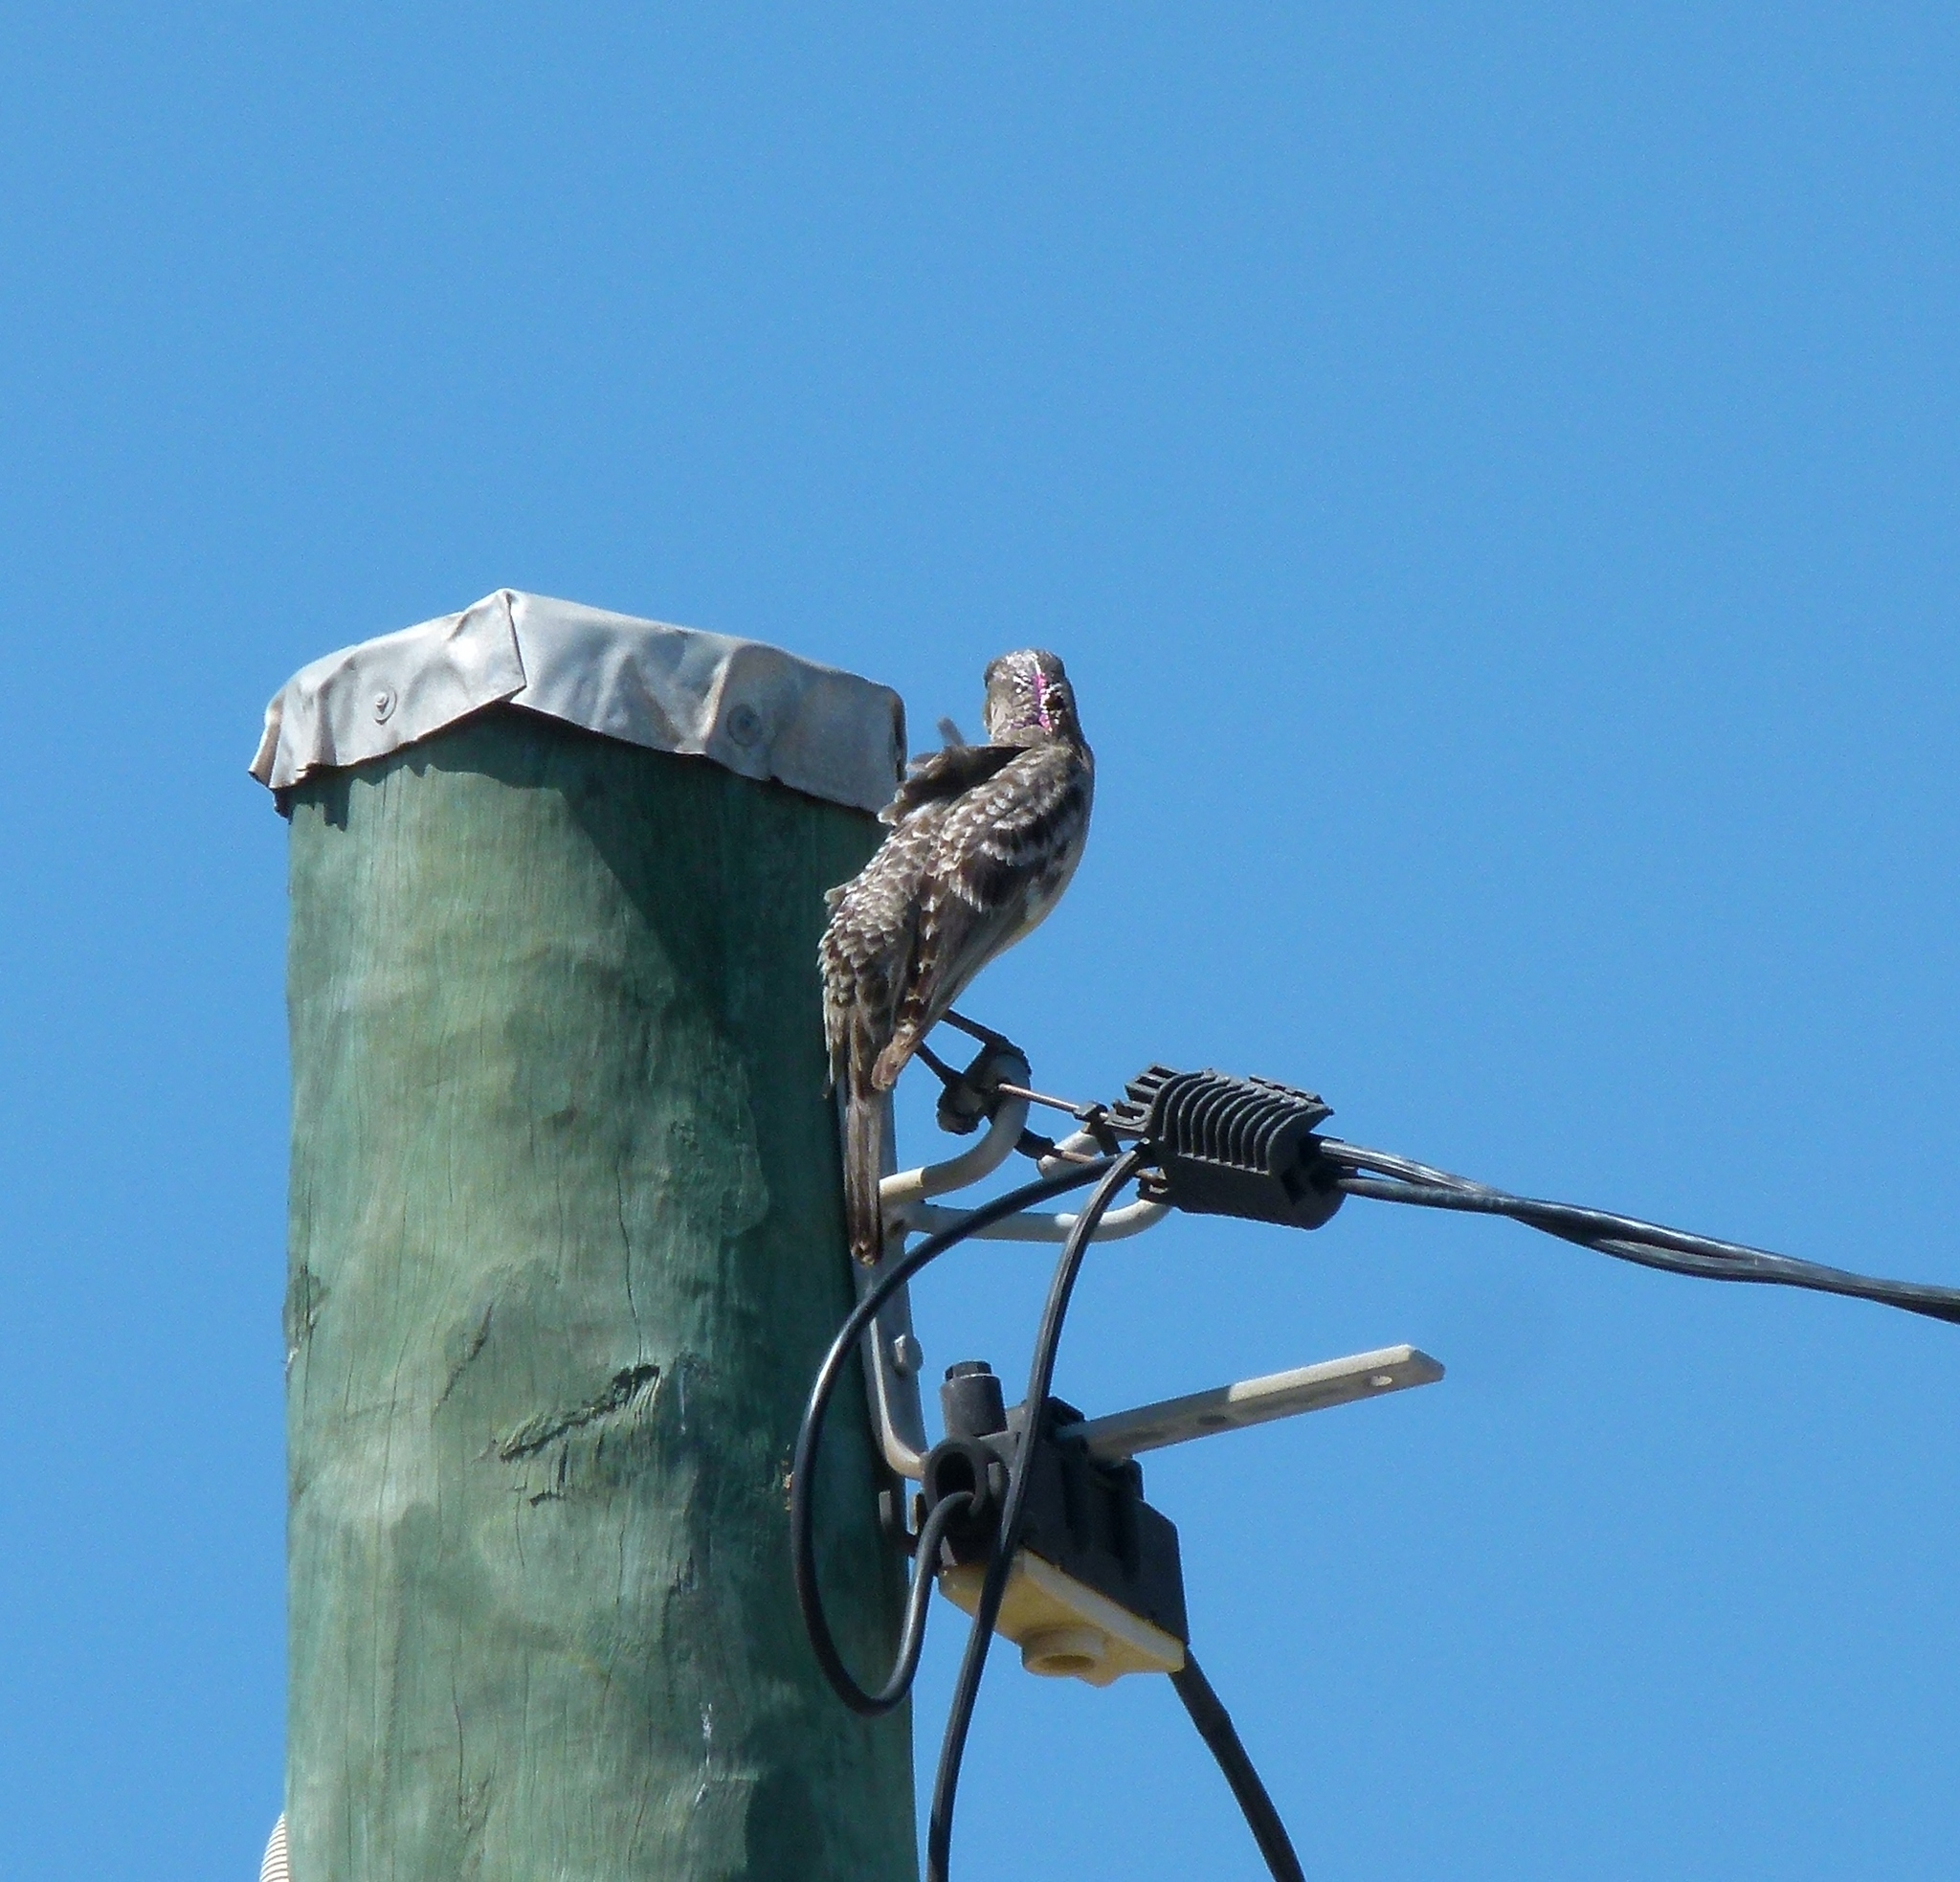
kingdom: Animalia
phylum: Chordata
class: Aves
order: Passeriformes
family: Ptilonorhynchidae
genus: Chlamydera
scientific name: Chlamydera nuchalis
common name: Great bowerbird
